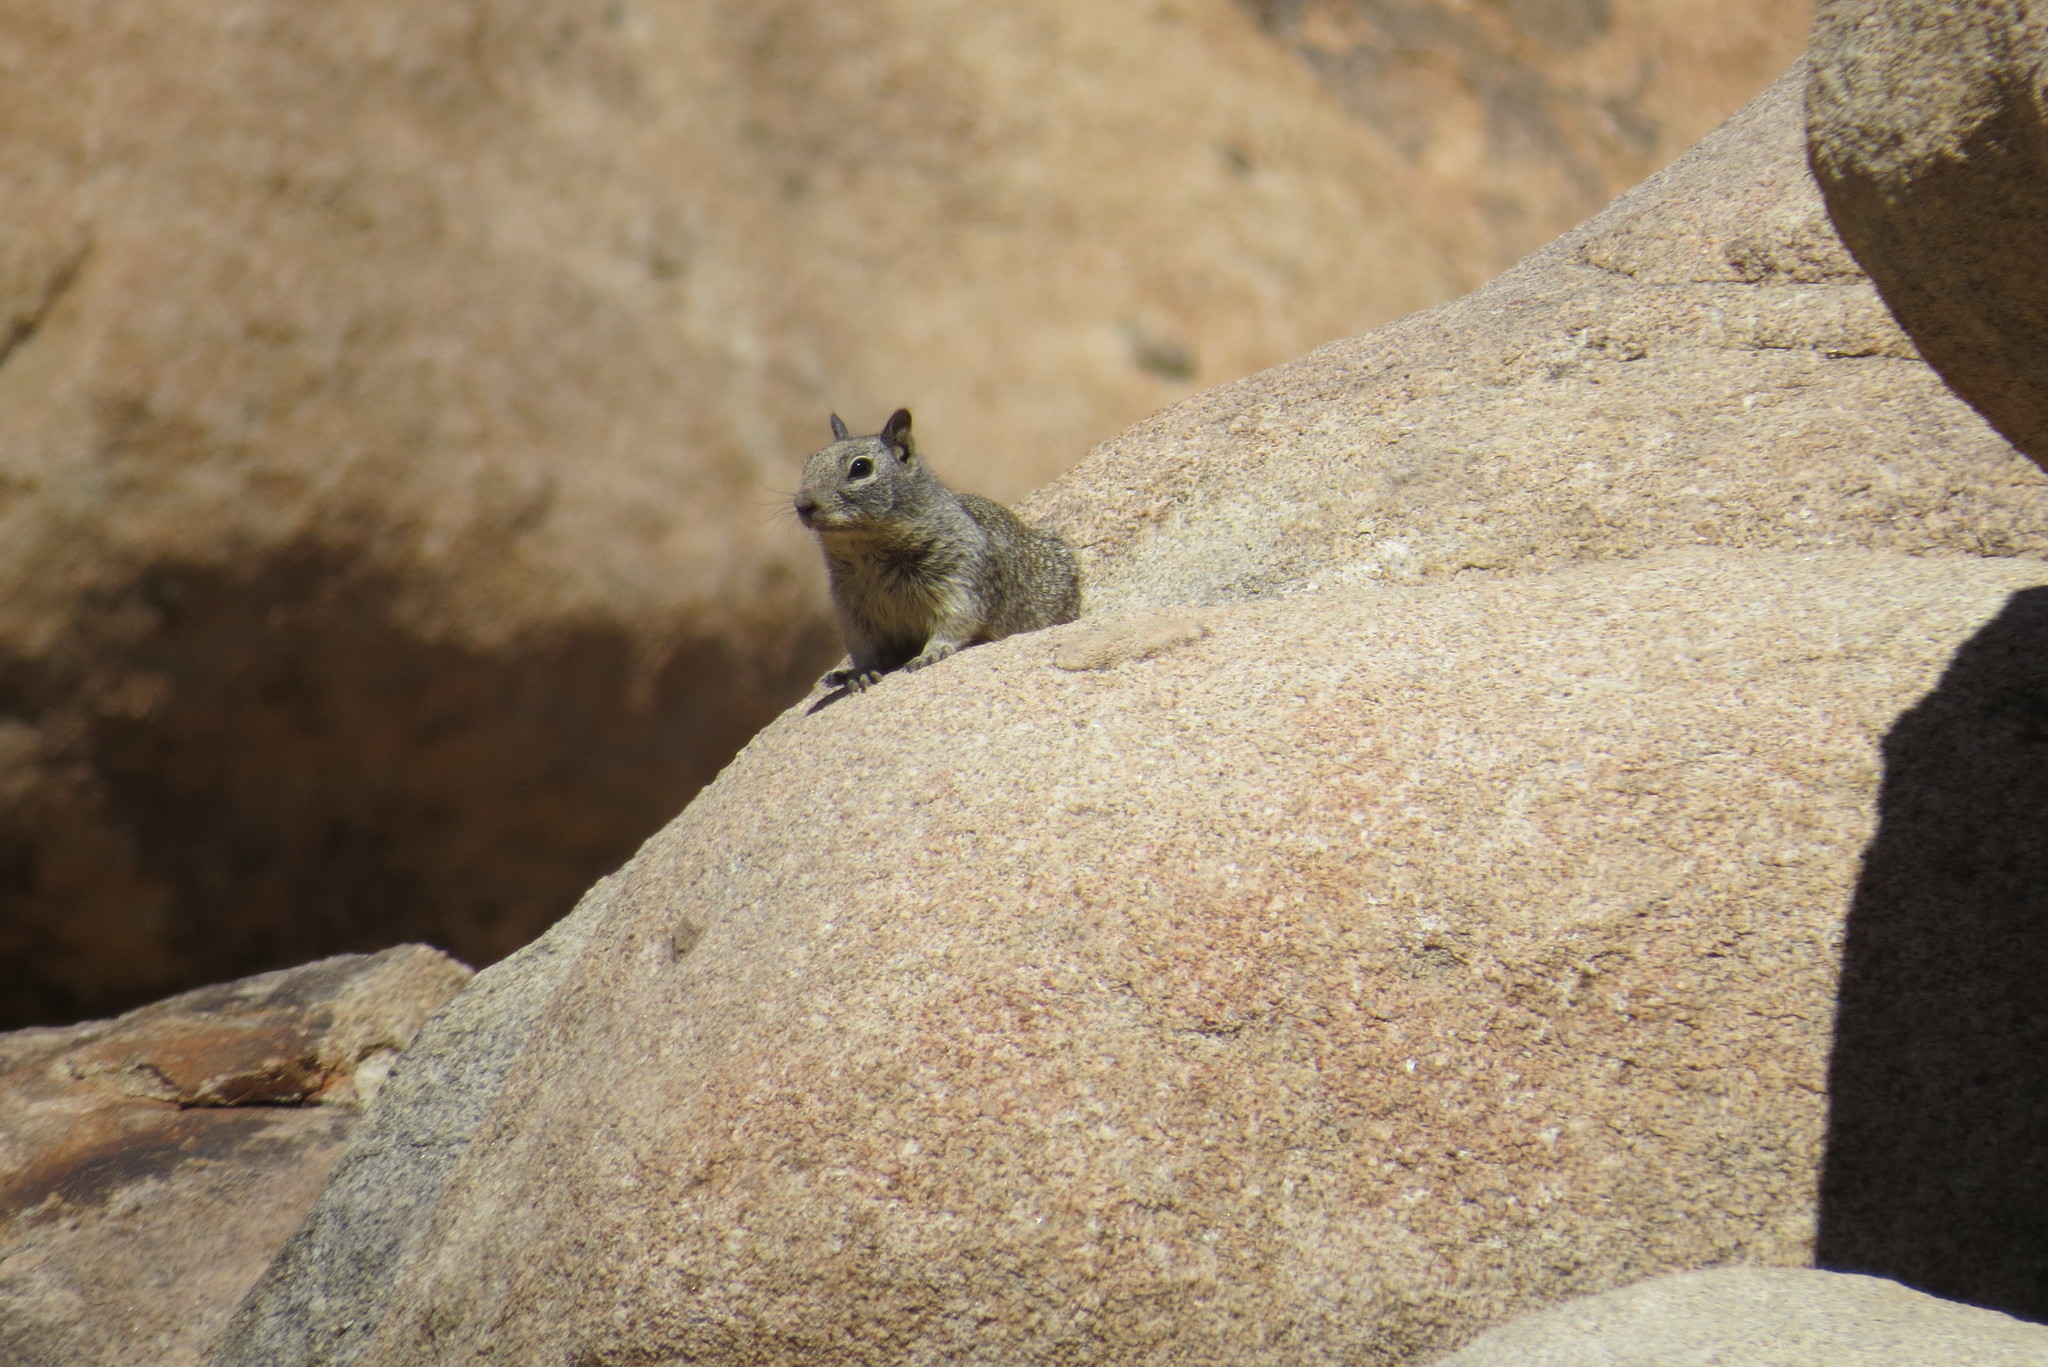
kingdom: Animalia
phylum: Chordata
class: Mammalia
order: Rodentia
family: Sciuridae
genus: Otospermophilus
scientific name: Otospermophilus beecheyi
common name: California ground squirrel
